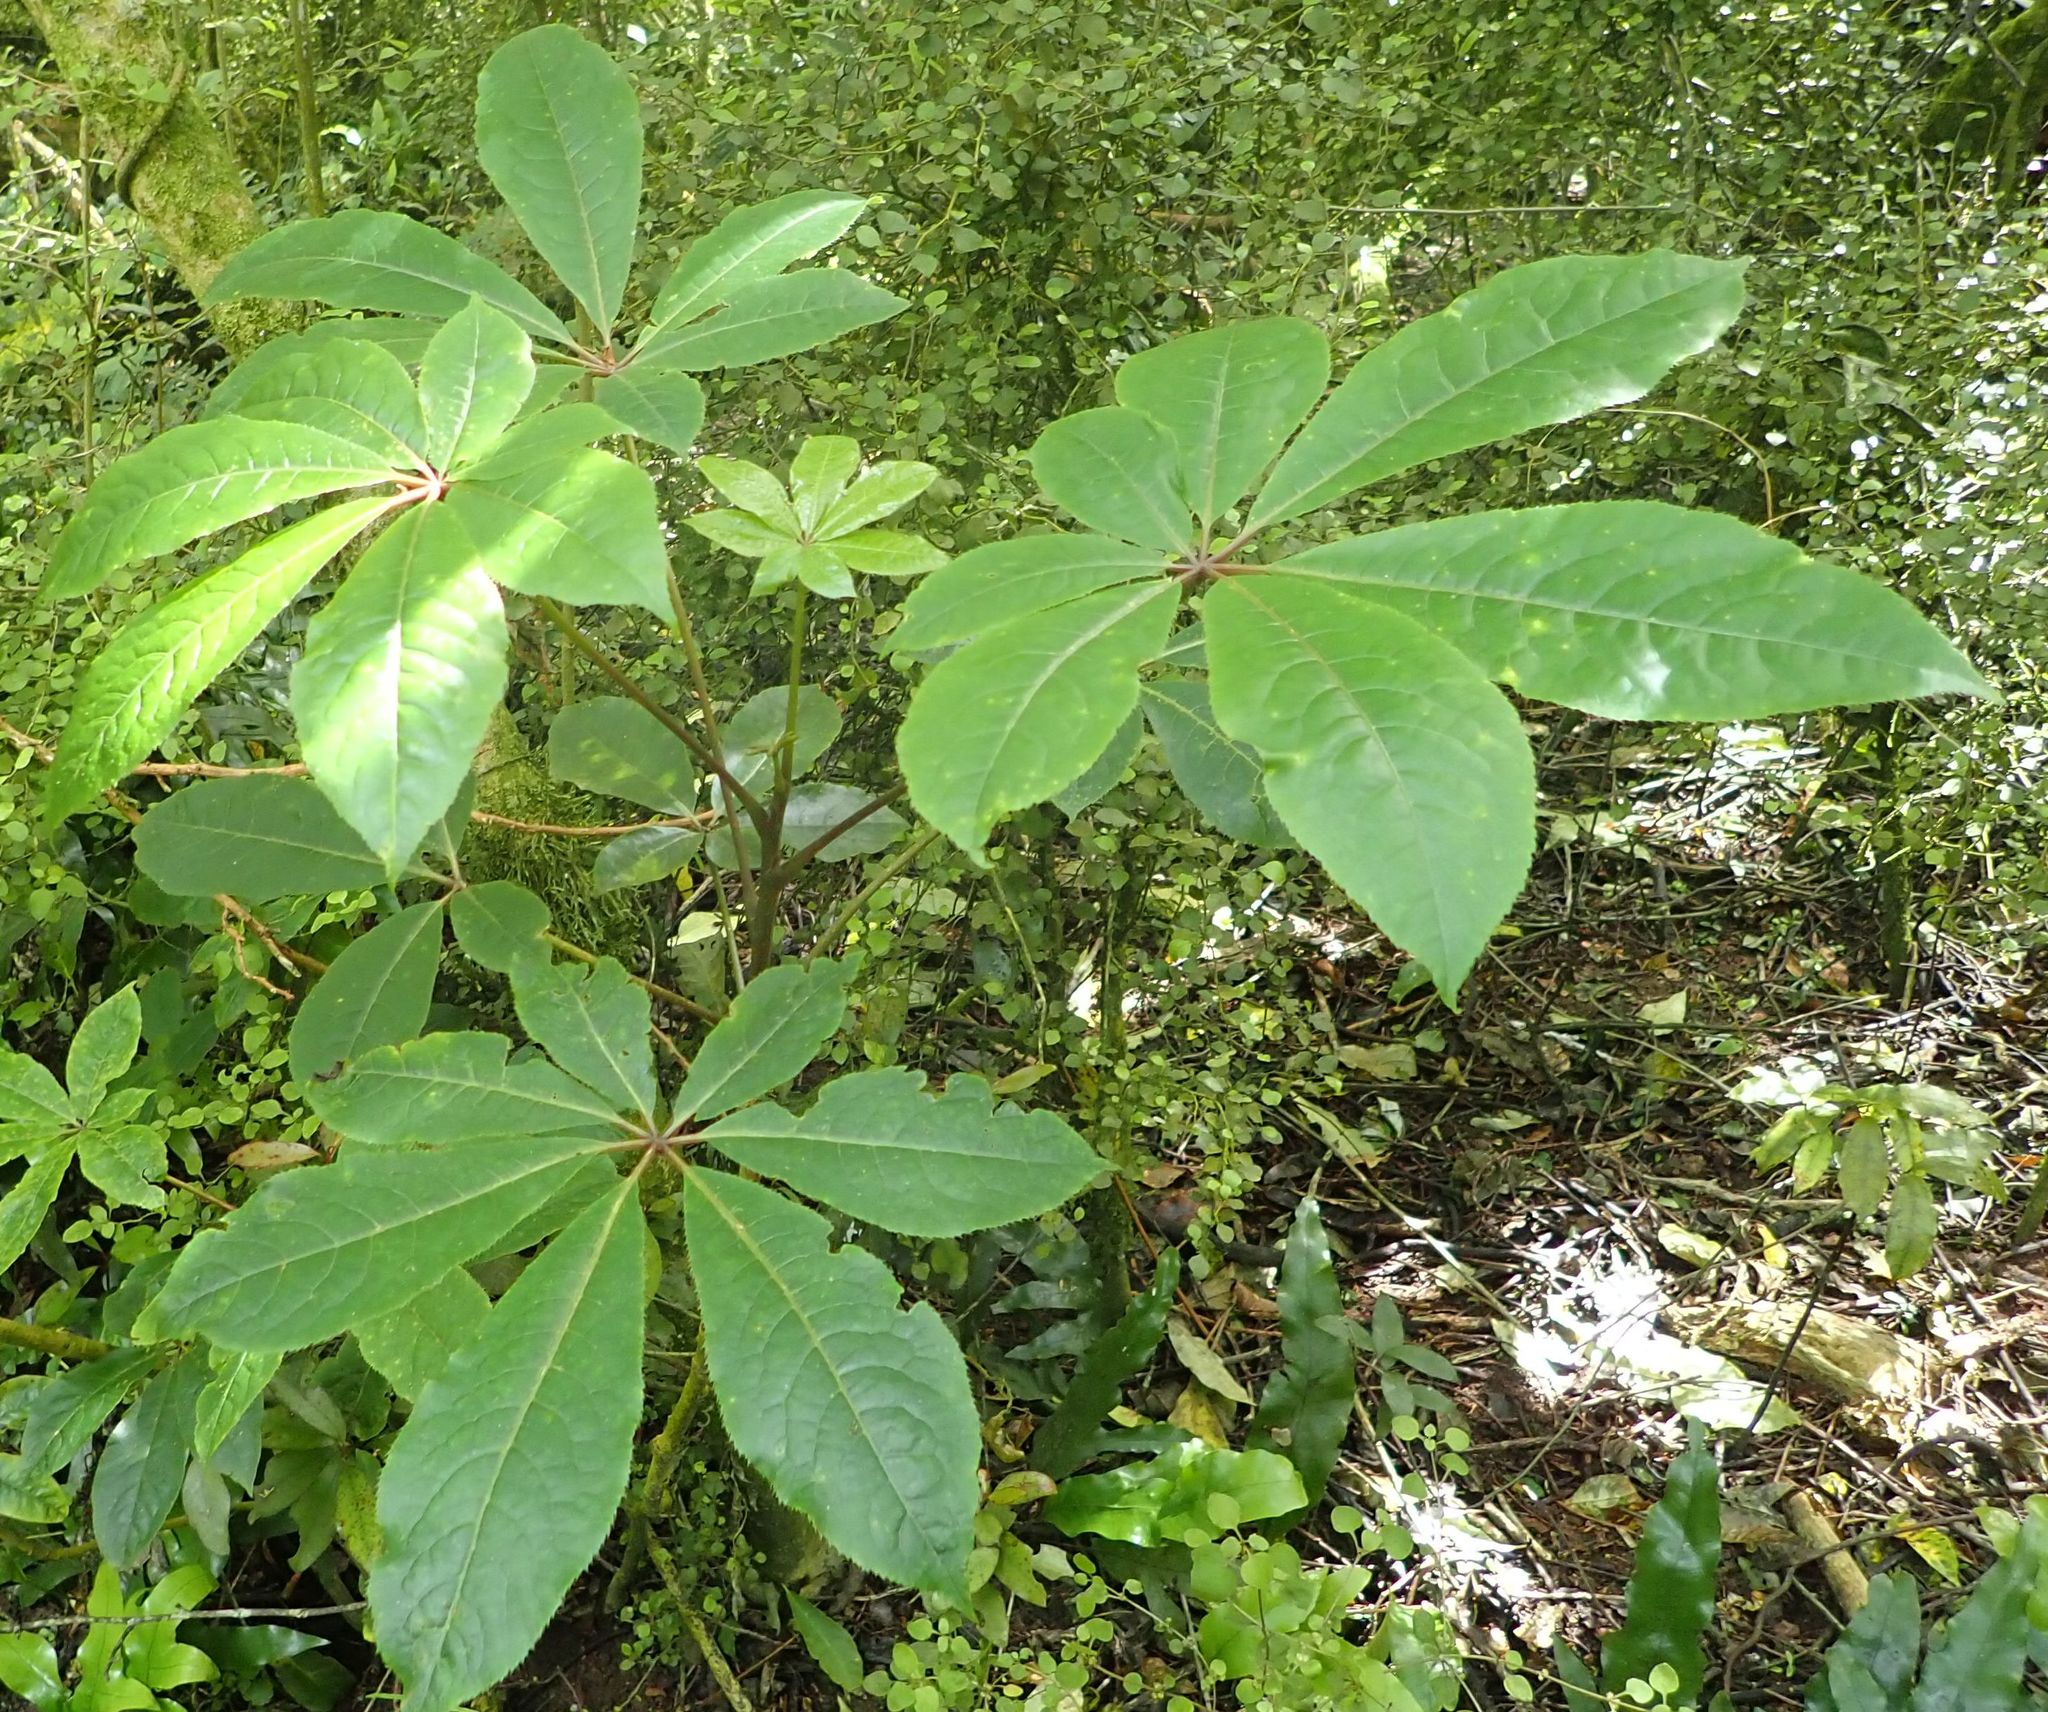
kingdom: Plantae
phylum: Tracheophyta
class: Magnoliopsida
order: Apiales
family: Araliaceae
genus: Schefflera
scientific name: Schefflera digitata
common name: Pate
